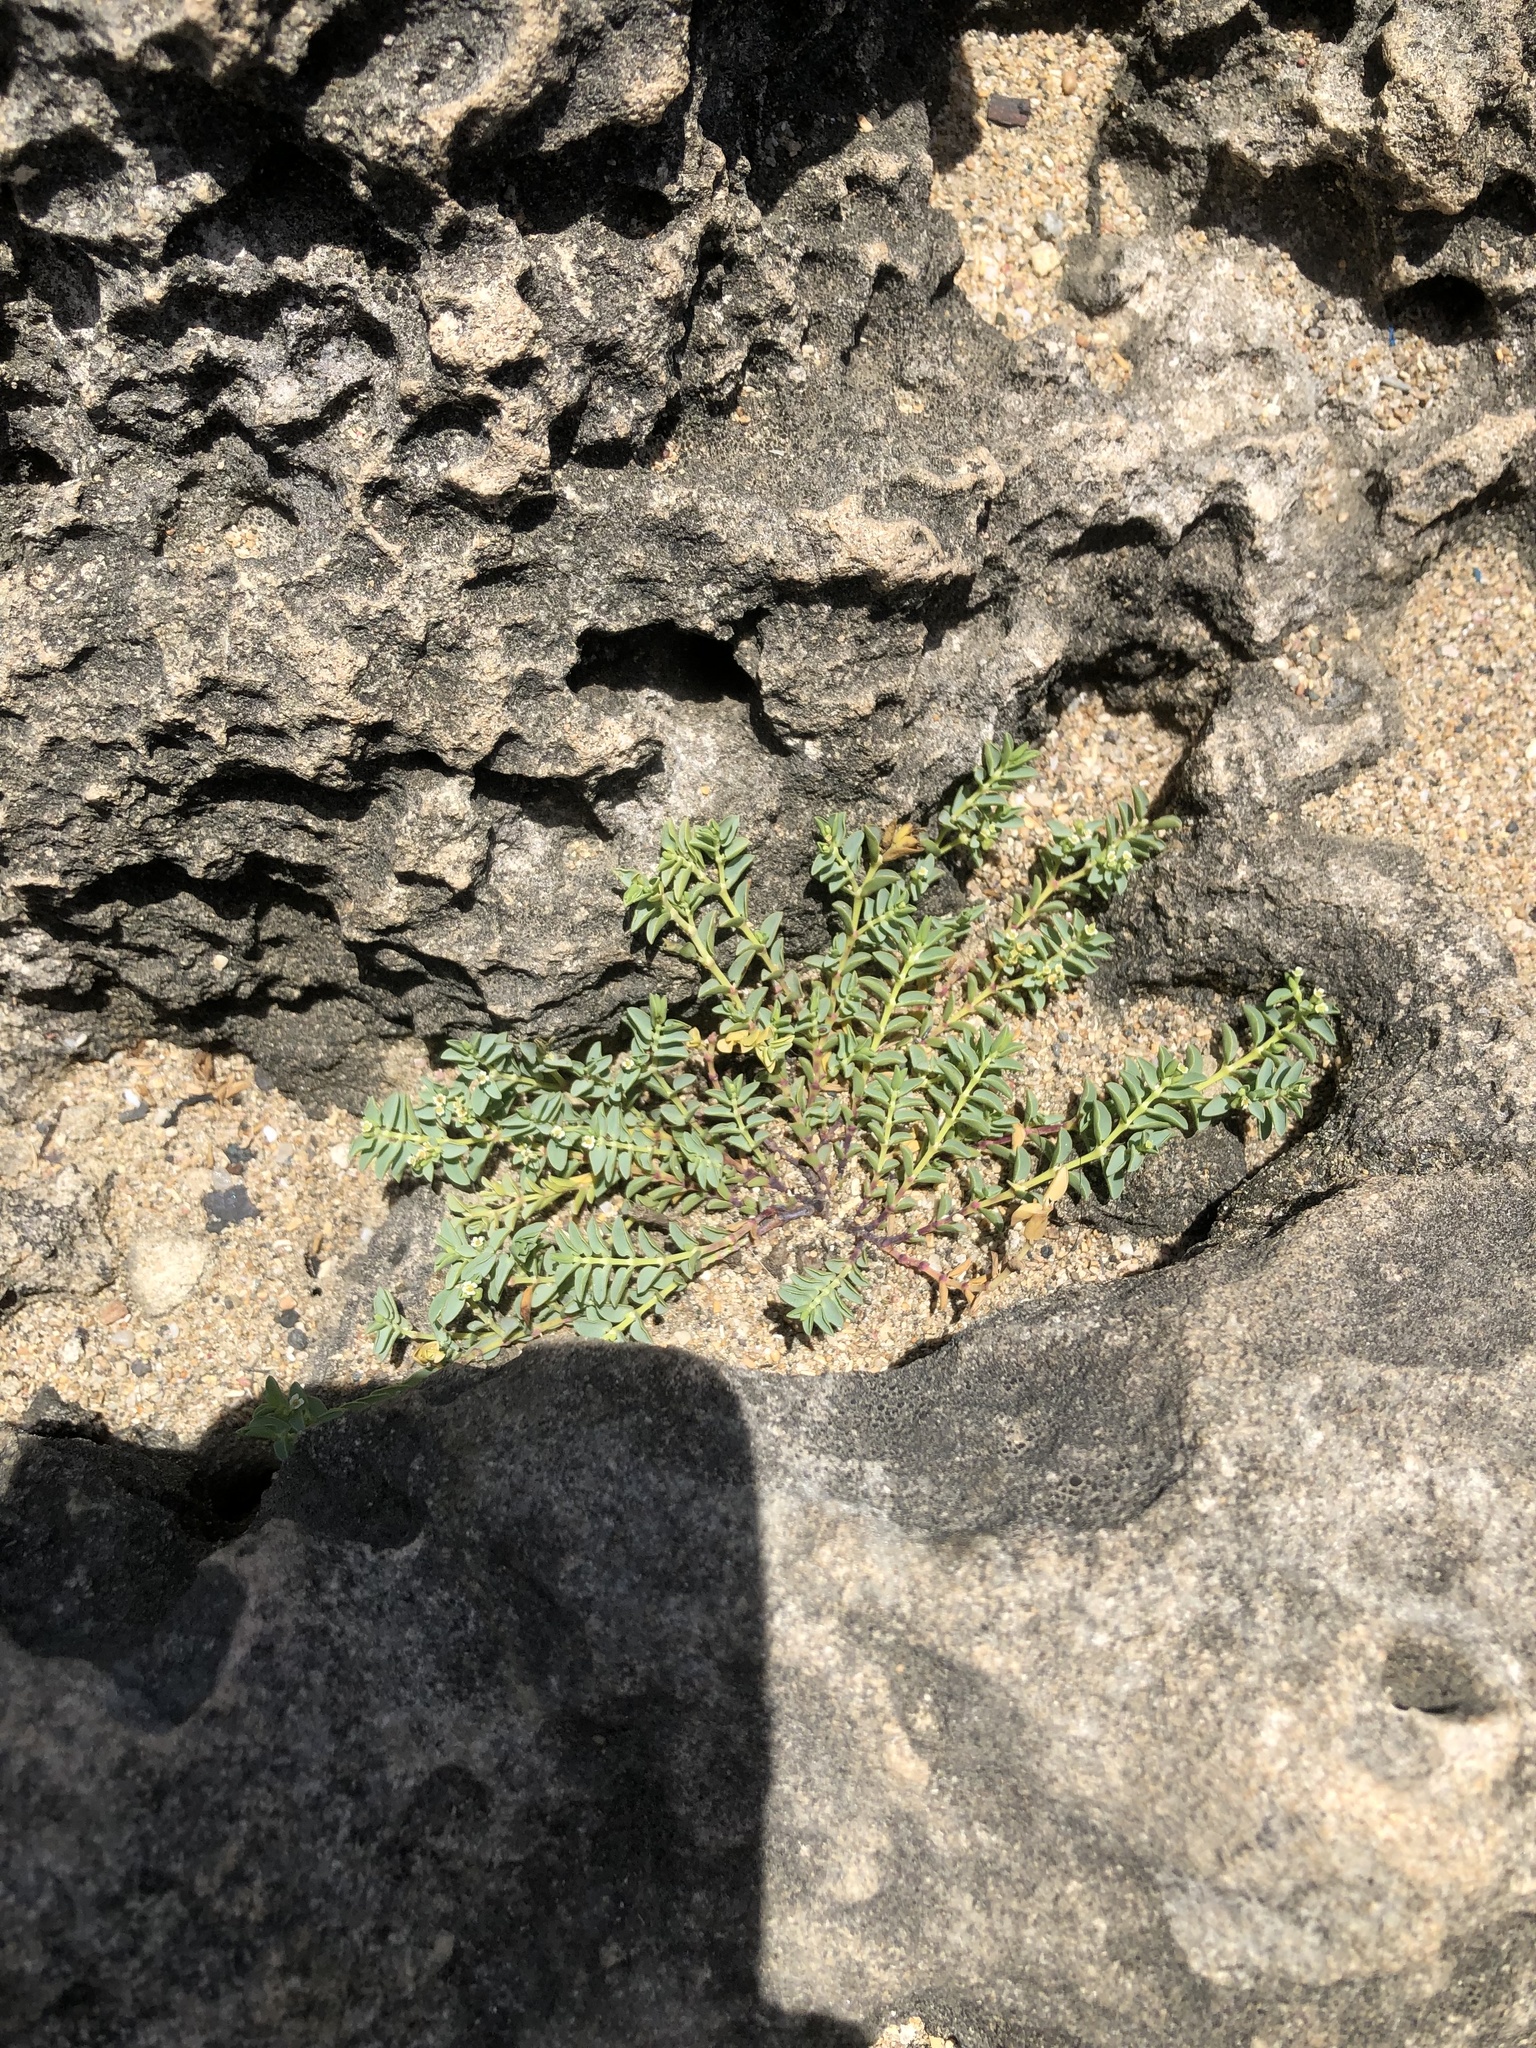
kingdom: Plantae
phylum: Tracheophyta
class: Magnoliopsida
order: Malpighiales
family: Euphorbiaceae
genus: Euphorbia
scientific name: Euphorbia mesembryanthemifolia
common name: Coastal beach sandmat
